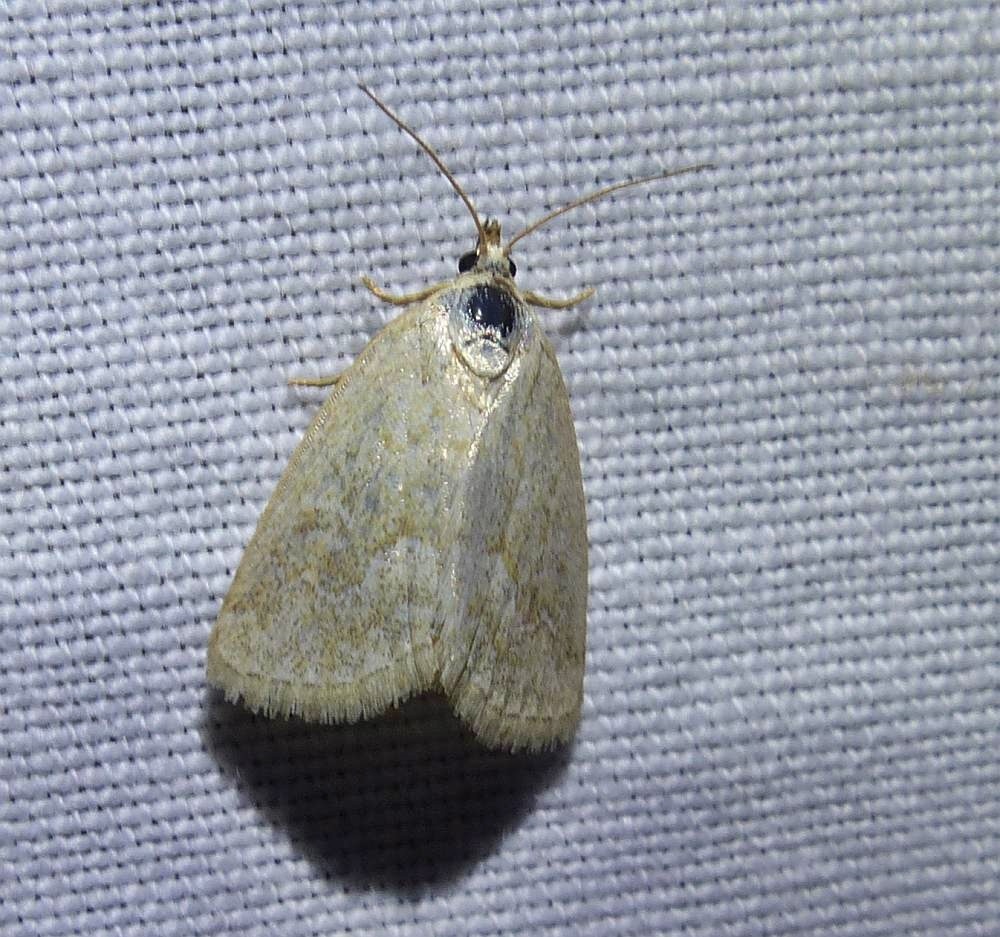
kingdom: Animalia
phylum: Arthropoda
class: Insecta
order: Lepidoptera
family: Noctuidae
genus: Protodeltote
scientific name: Protodeltote albidula
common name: Pale glyph
